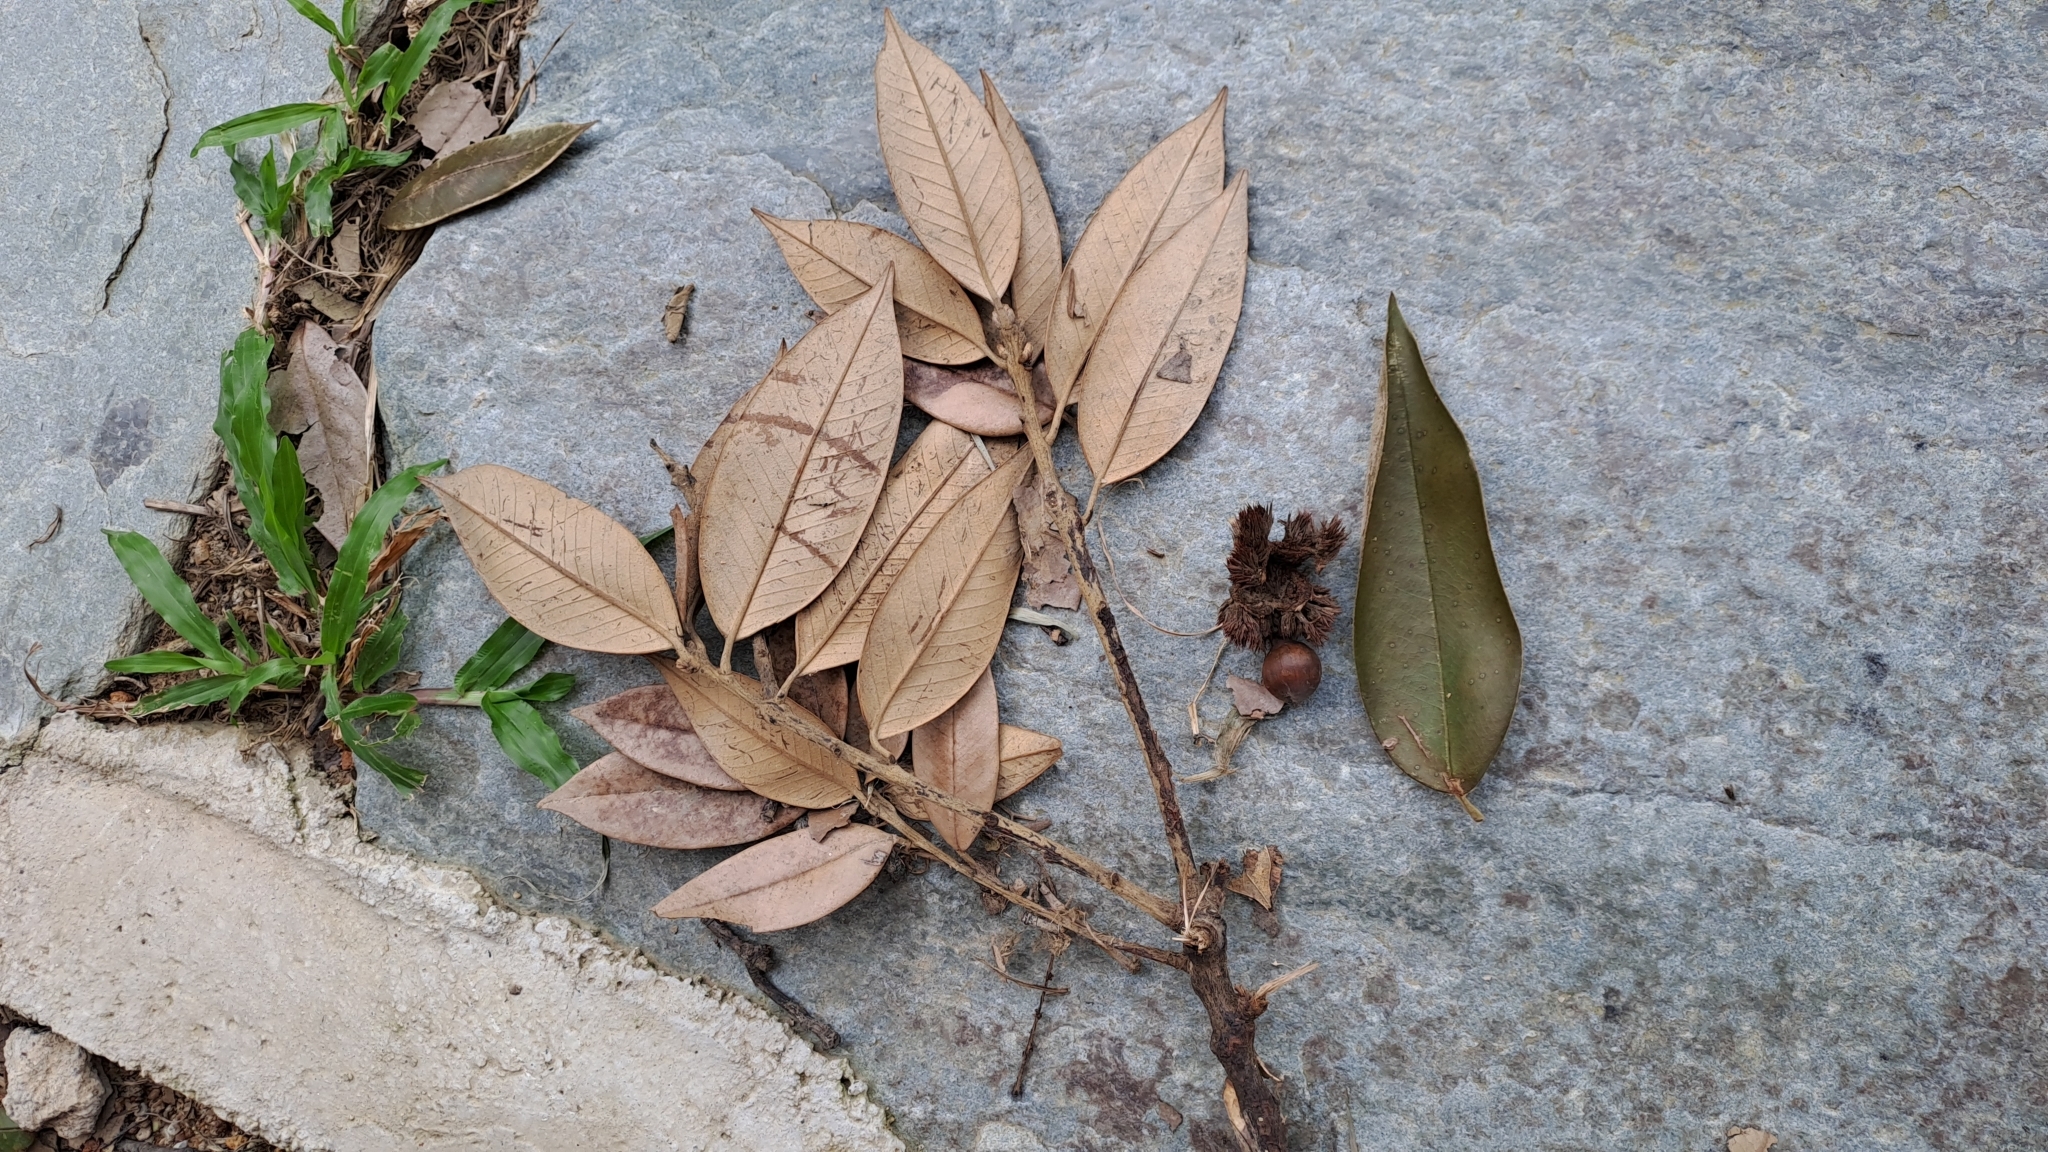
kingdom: Plantae
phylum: Tracheophyta
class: Magnoliopsida
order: Fagales
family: Fagaceae
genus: Castanopsis
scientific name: Castanopsis concinna
